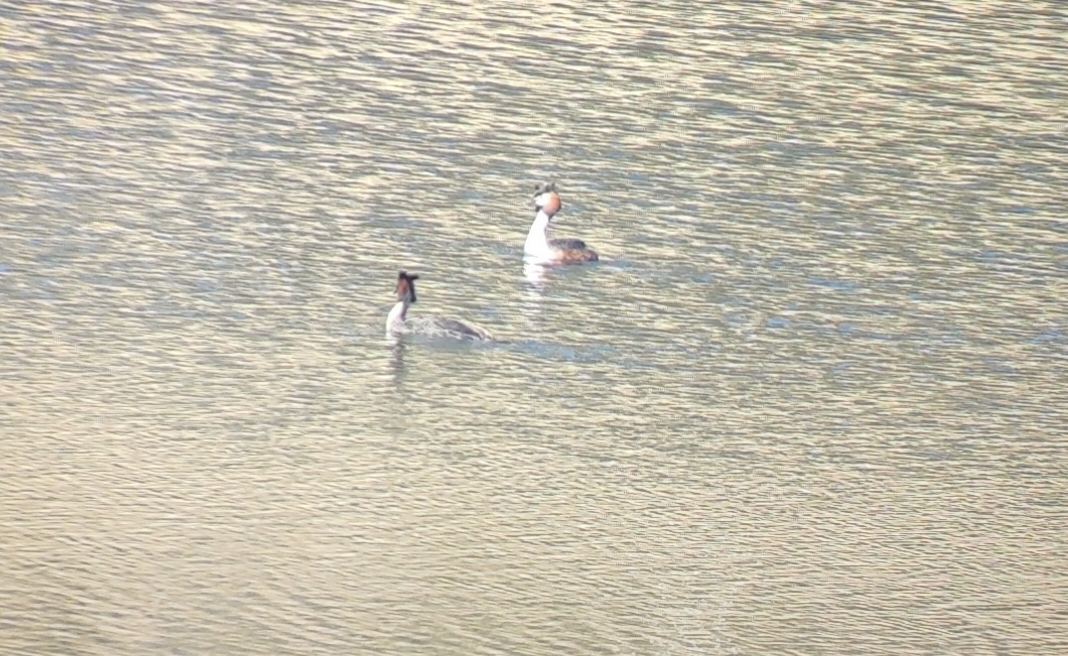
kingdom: Animalia
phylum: Chordata
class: Aves
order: Podicipediformes
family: Podicipedidae
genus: Podiceps
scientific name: Podiceps cristatus
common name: Great crested grebe
